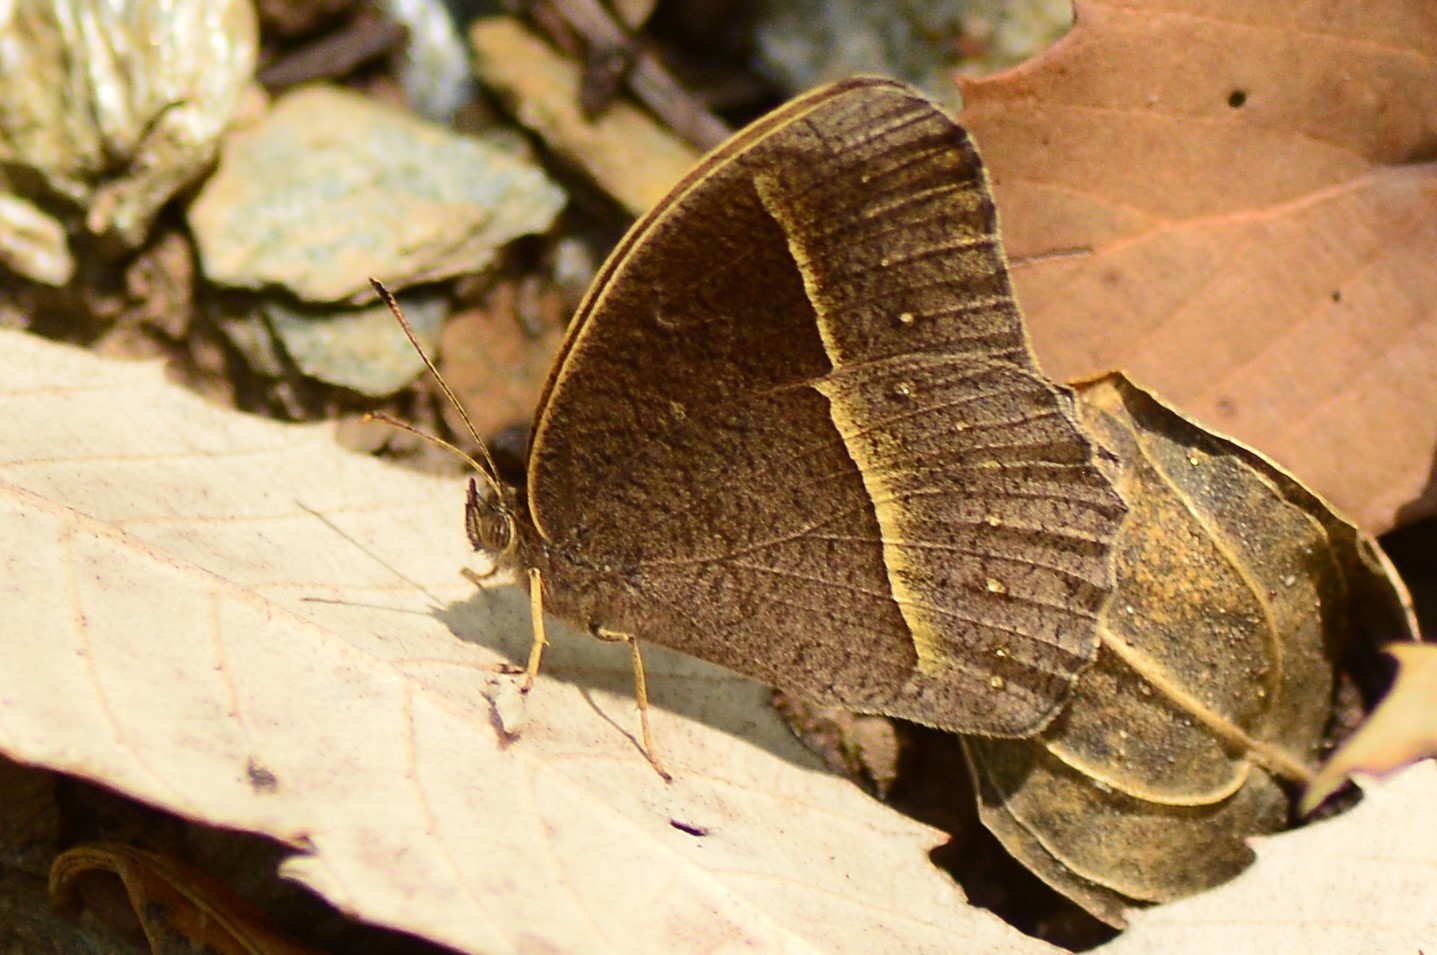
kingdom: Animalia
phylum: Arthropoda
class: Insecta
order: Lepidoptera
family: Nymphalidae
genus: Mycalesis
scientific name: Mycalesis Telinga spec
